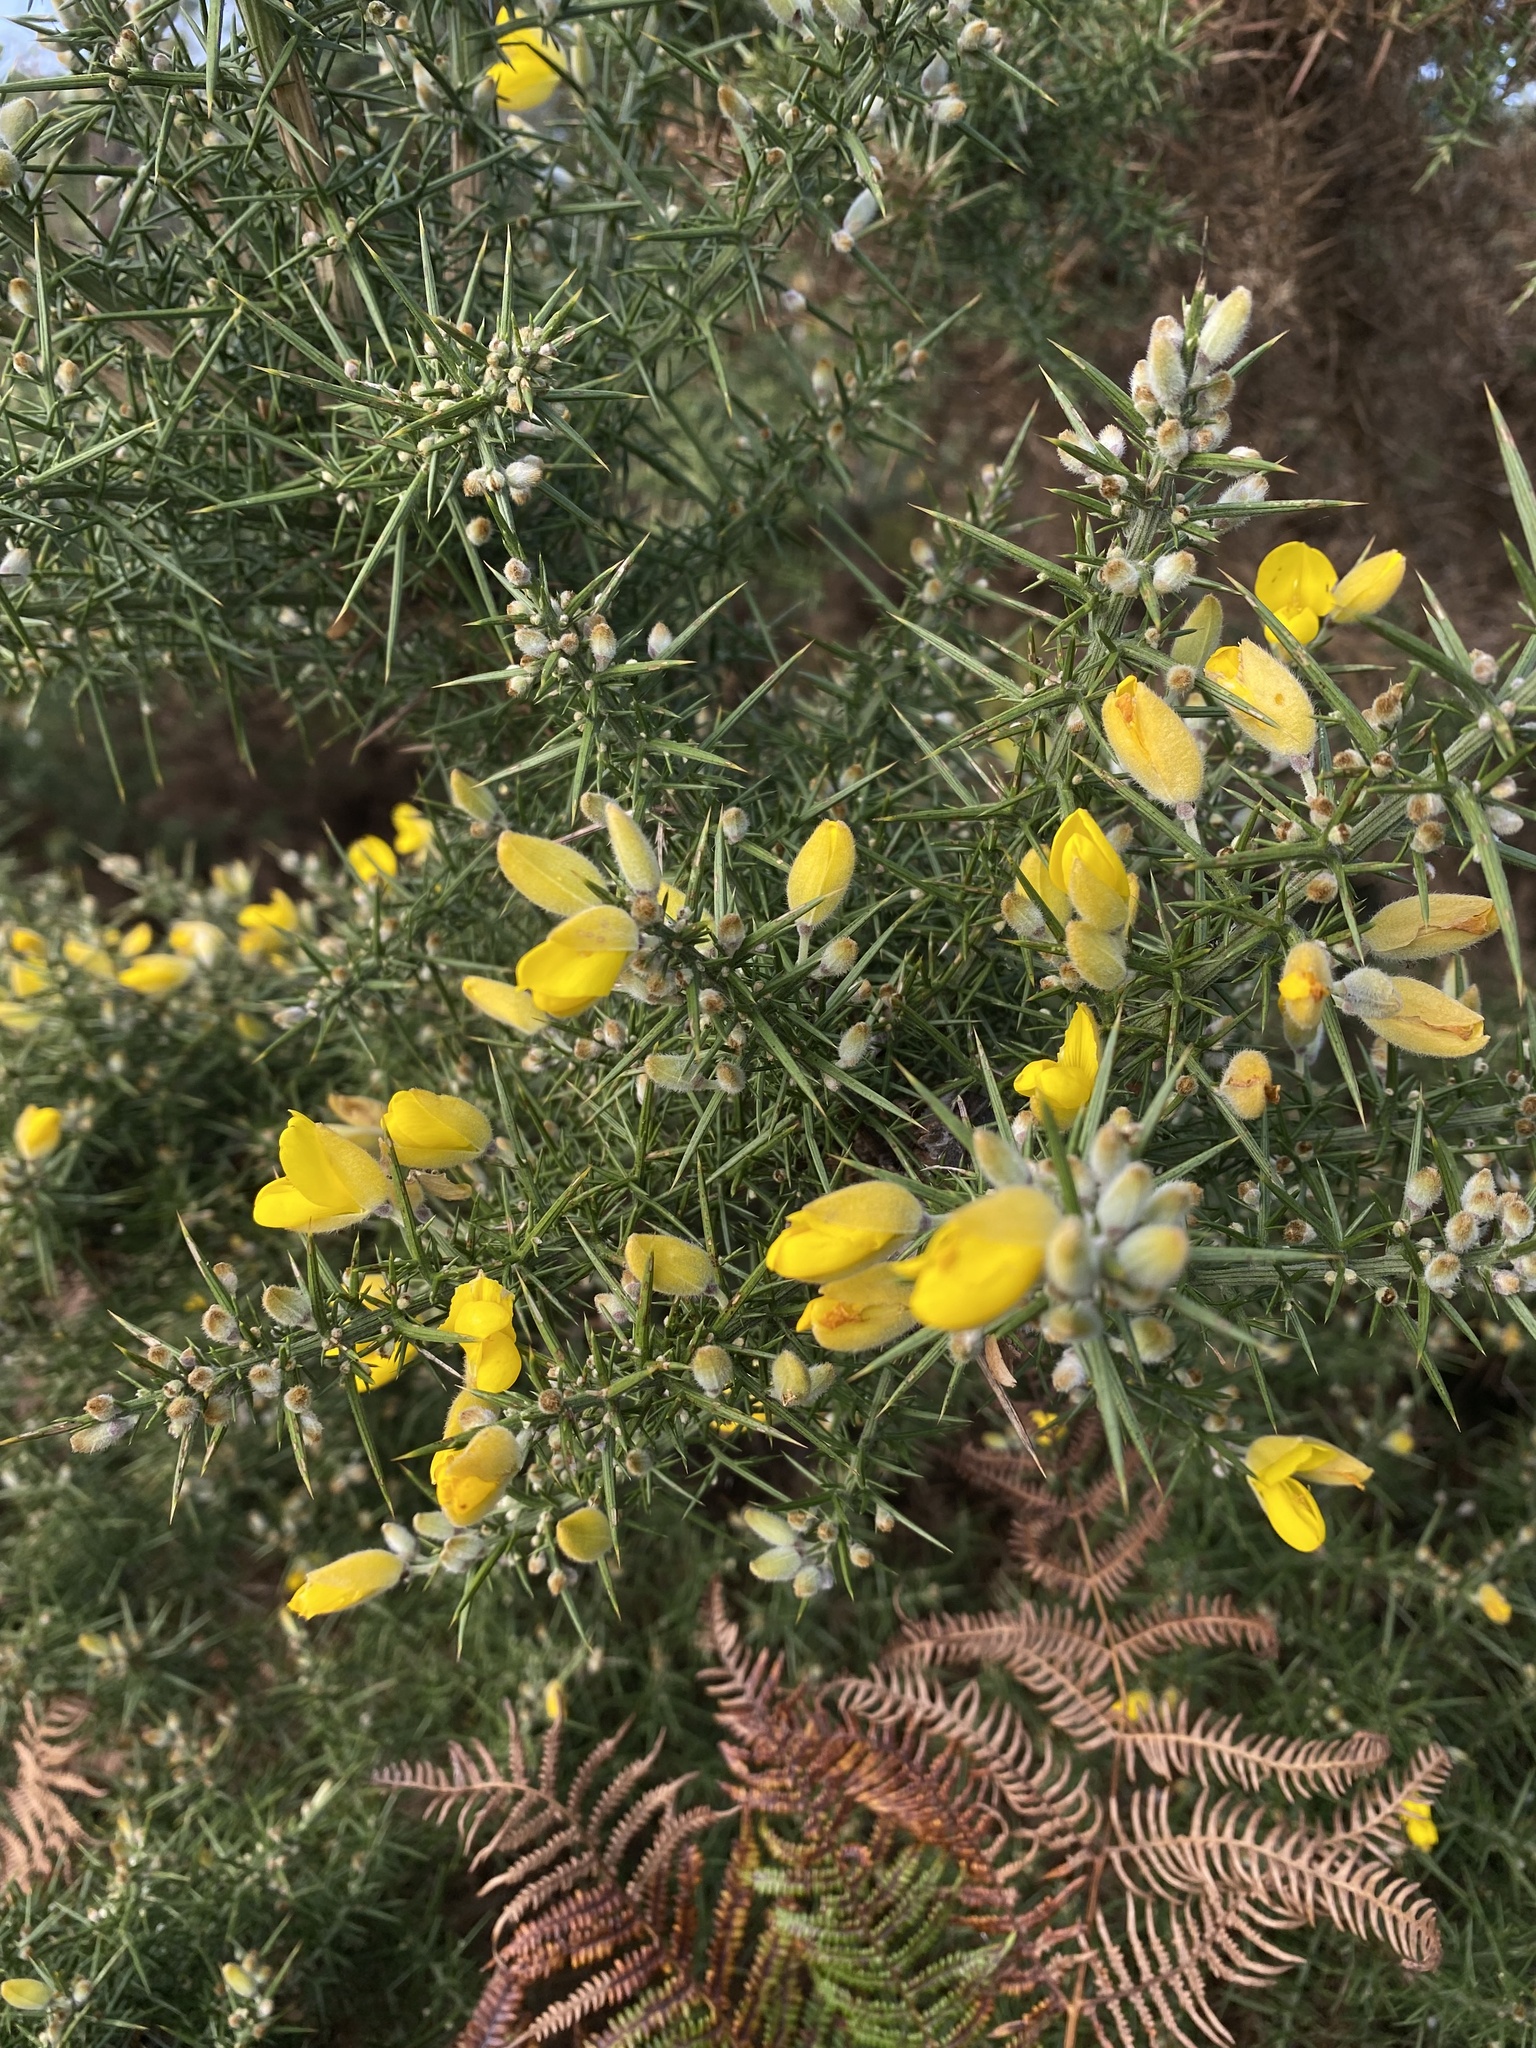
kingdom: Plantae
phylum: Tracheophyta
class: Magnoliopsida
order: Fabales
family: Fabaceae
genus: Ulex
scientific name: Ulex europaeus
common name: Common gorse
